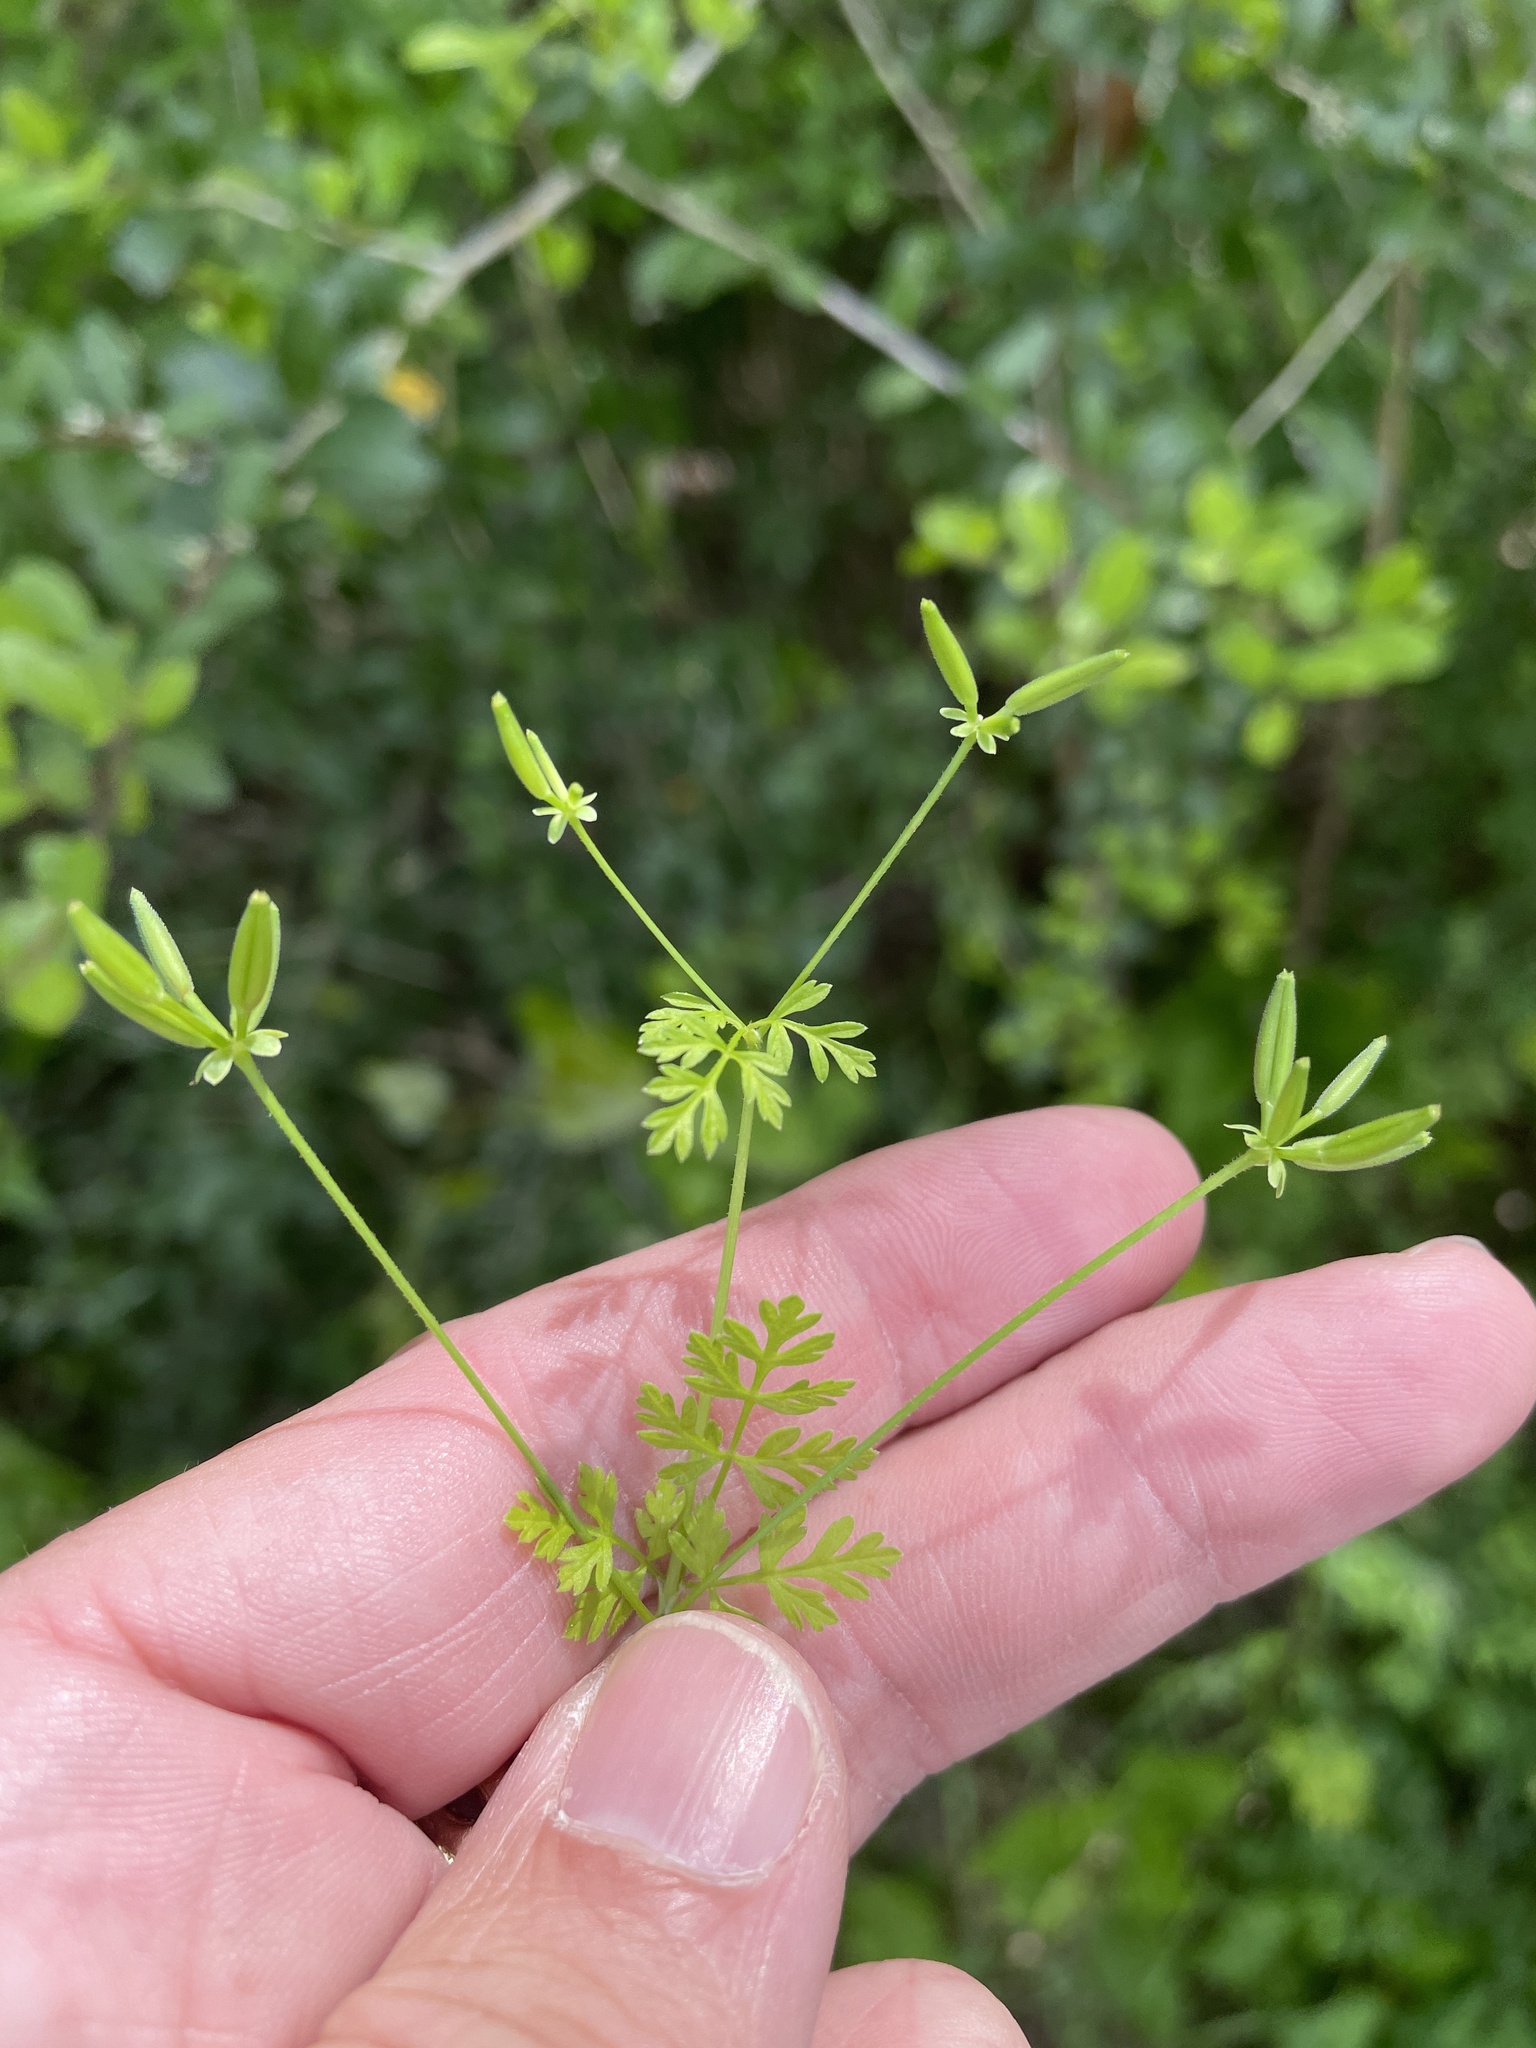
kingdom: Plantae
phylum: Tracheophyta
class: Magnoliopsida
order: Apiales
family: Apiaceae
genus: Chaerophyllum
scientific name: Chaerophyllum tainturieri
